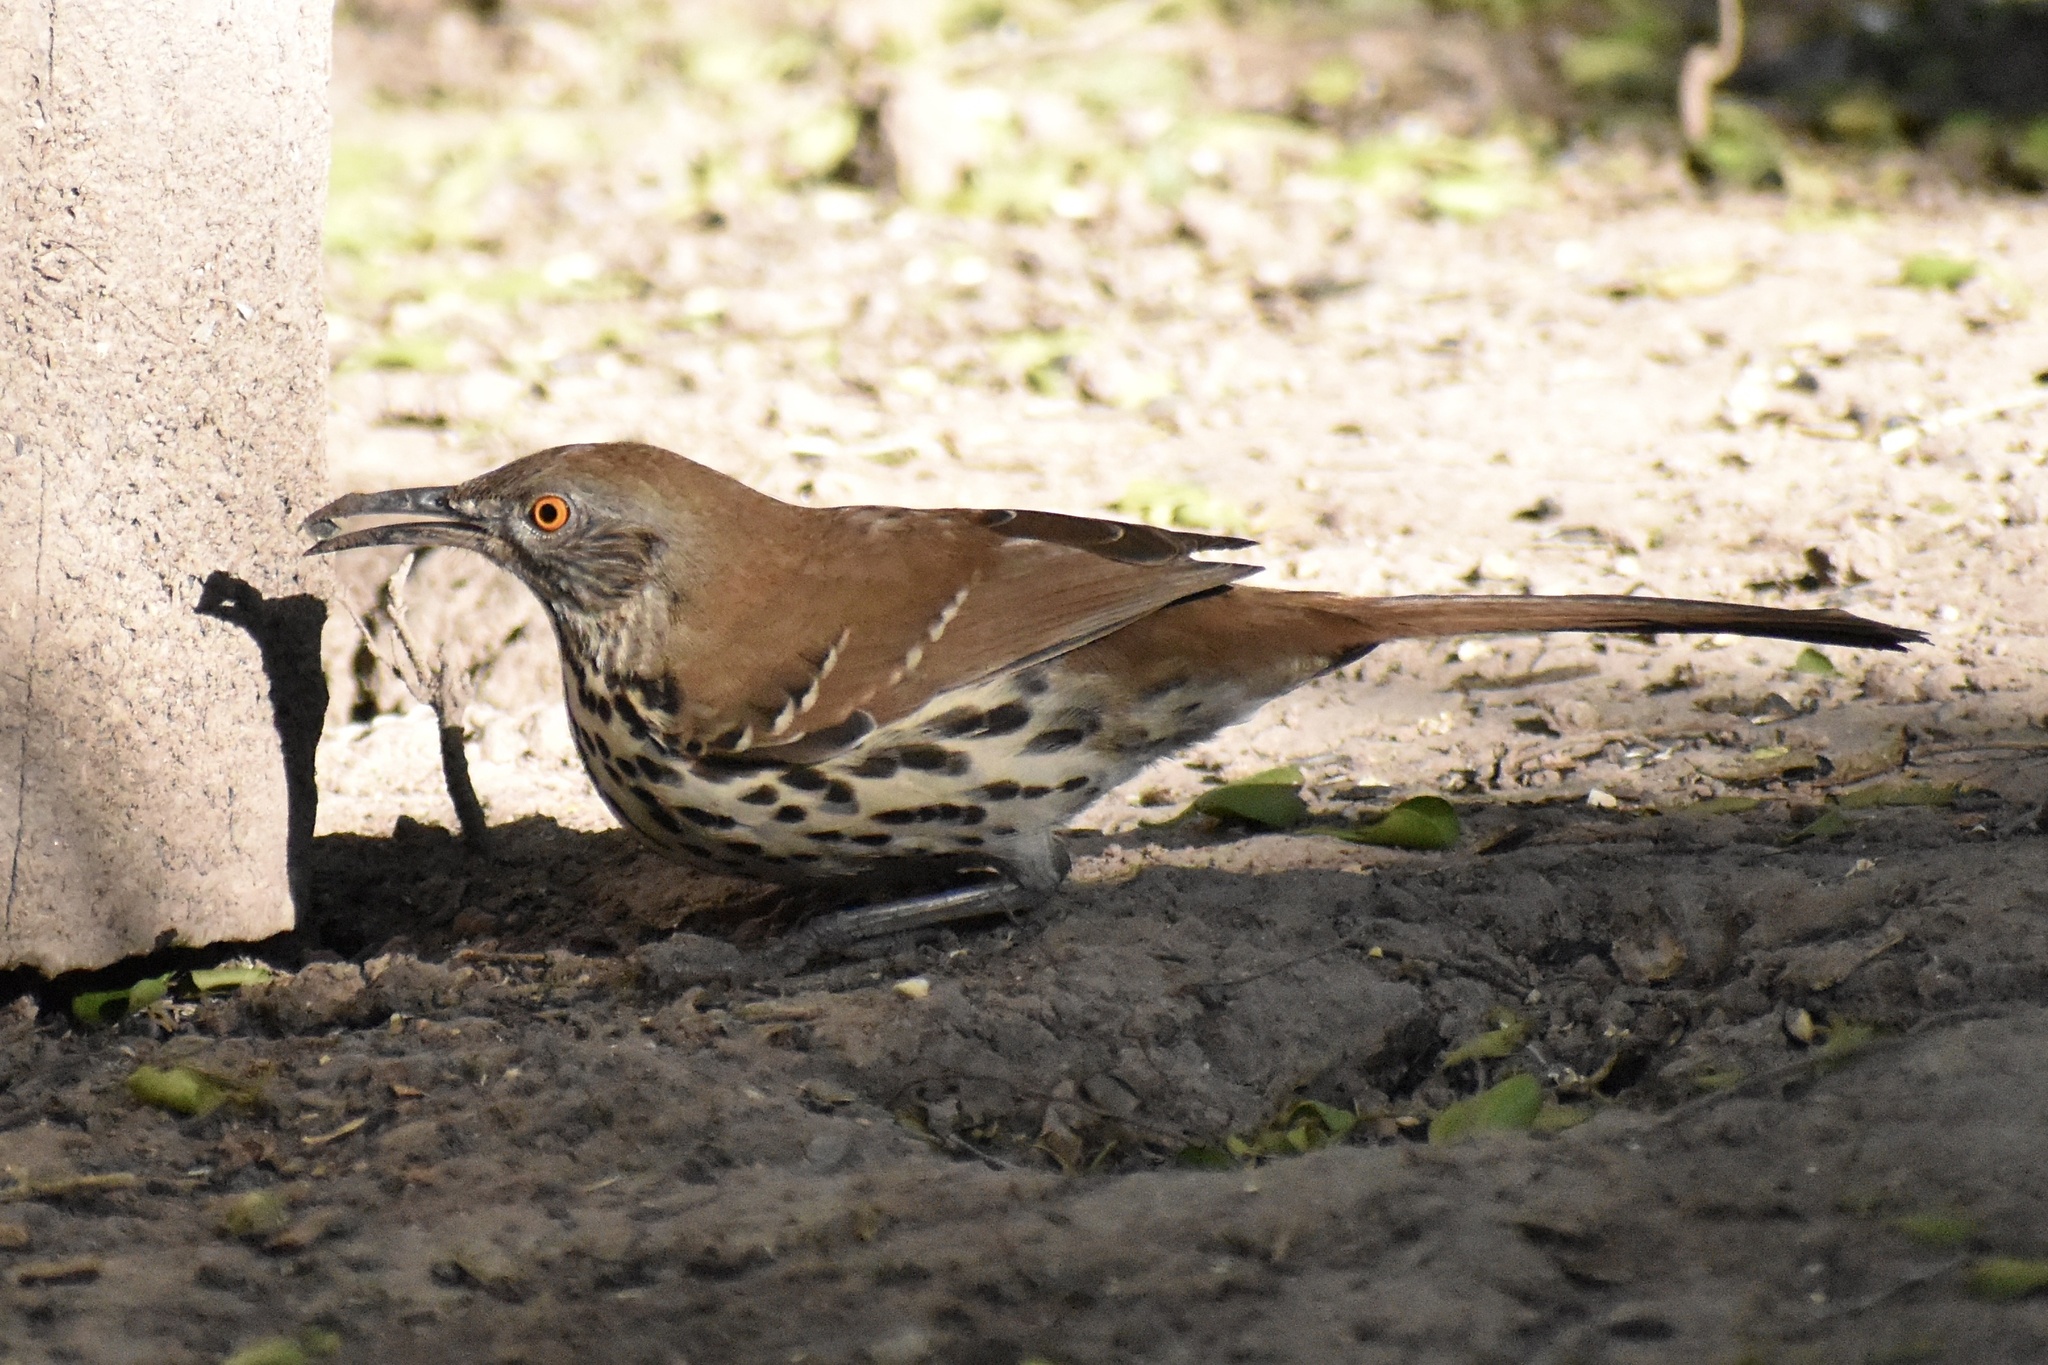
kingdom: Animalia
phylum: Chordata
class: Aves
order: Passeriformes
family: Mimidae
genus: Toxostoma
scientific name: Toxostoma longirostre
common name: Long-billed thrasher
